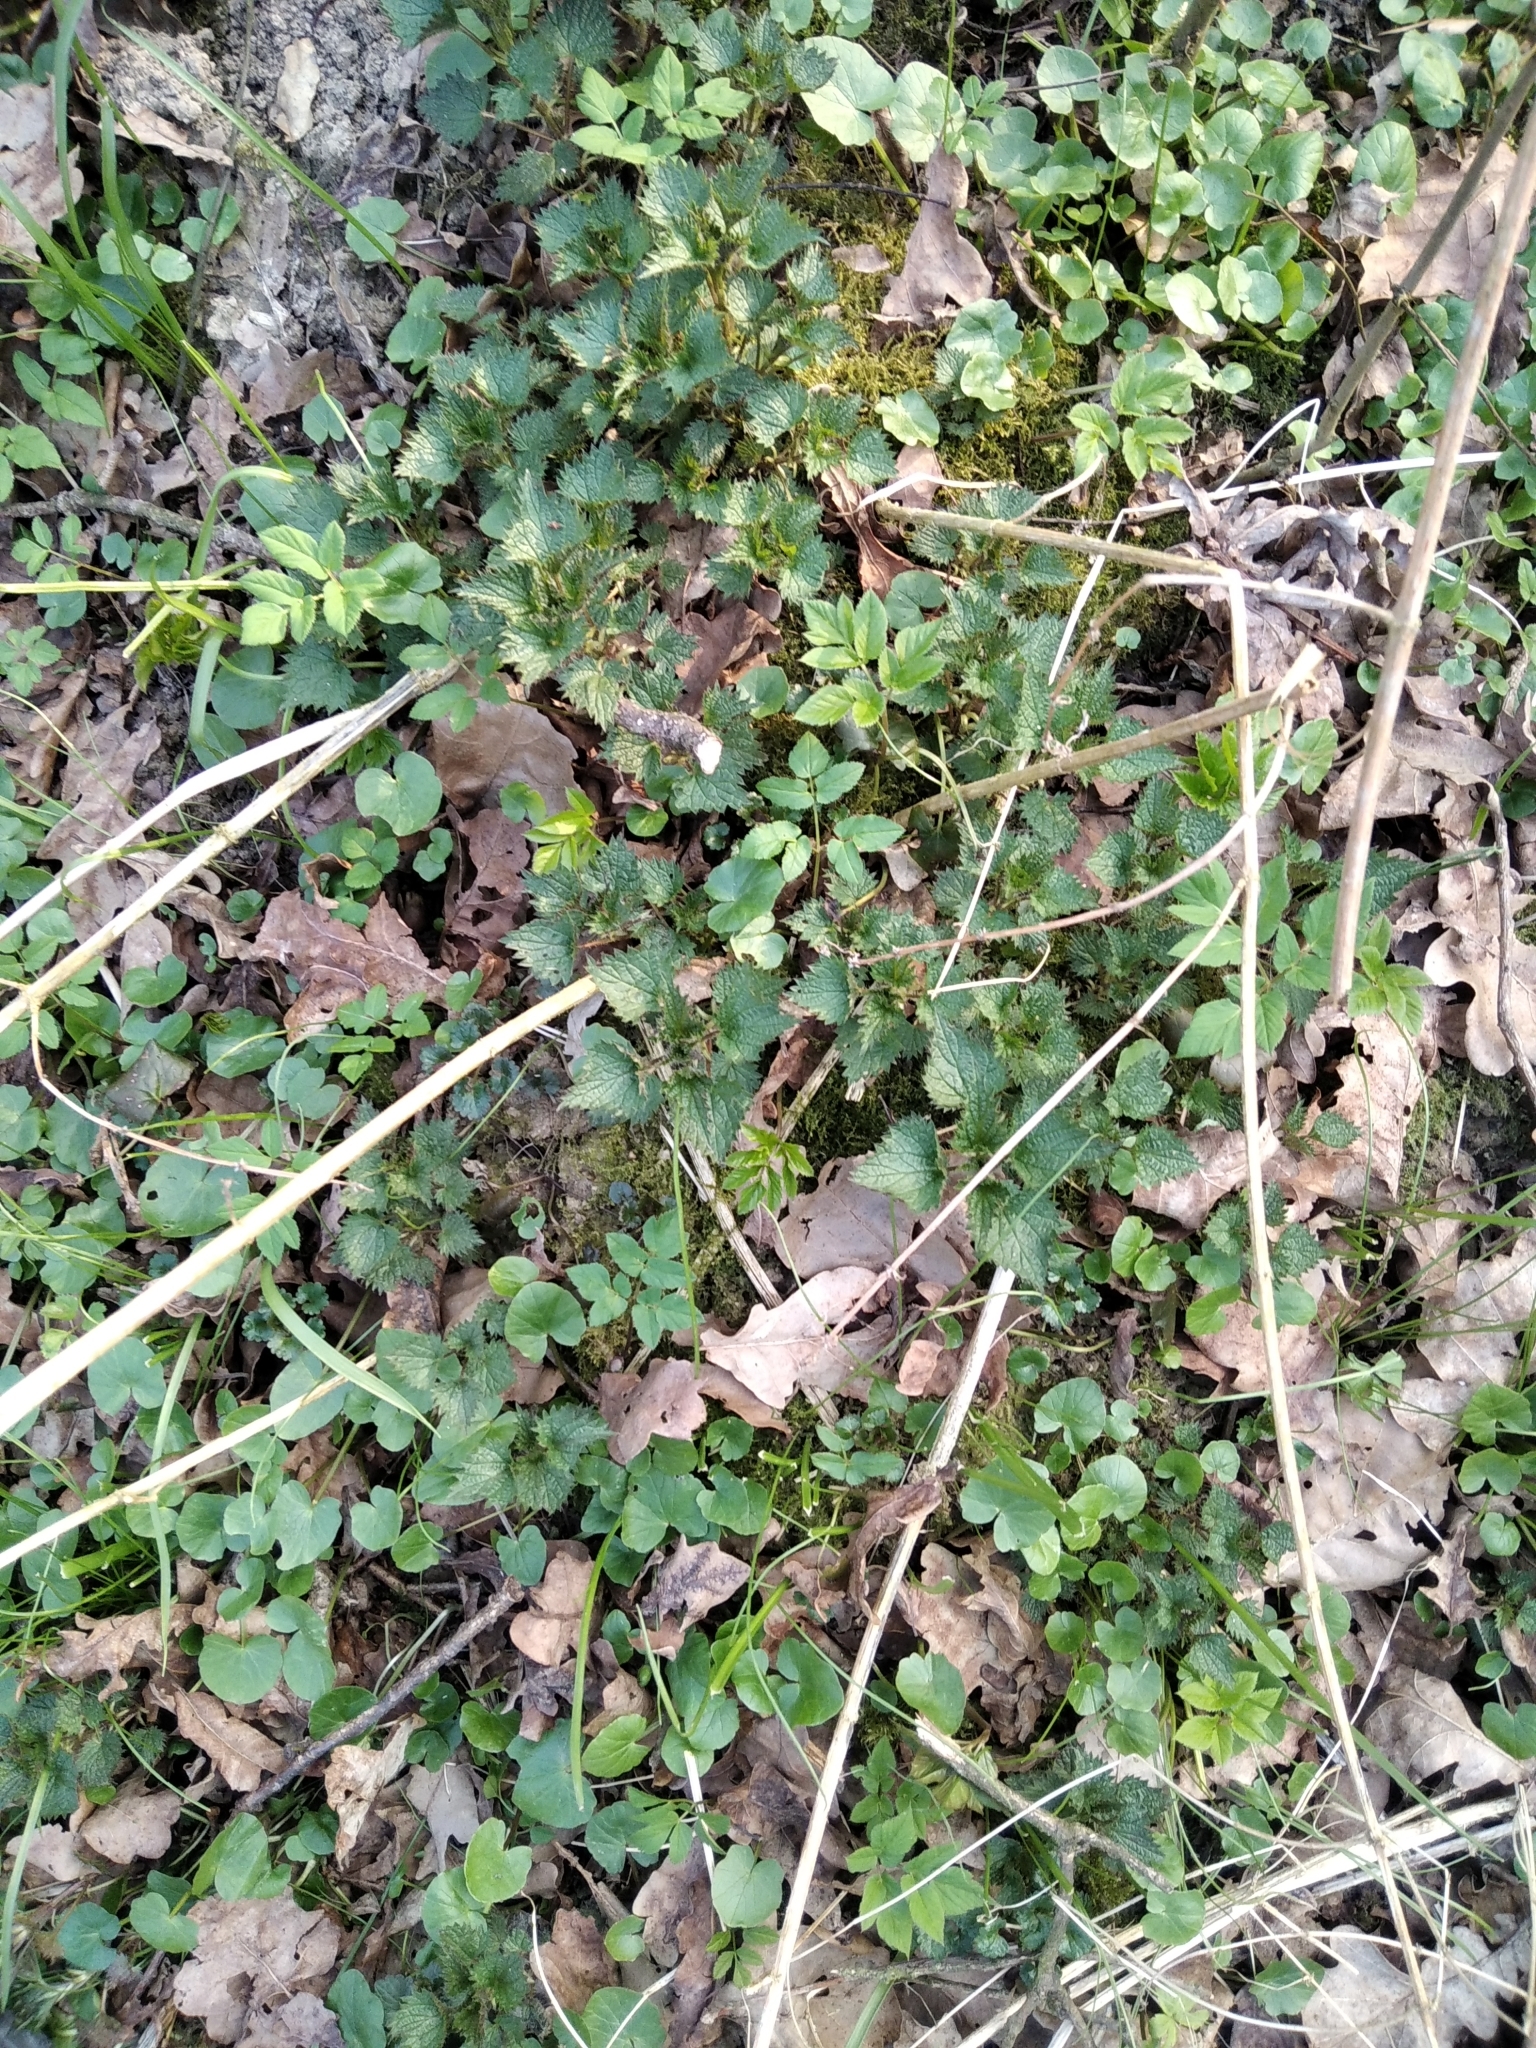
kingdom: Plantae
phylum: Tracheophyta
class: Magnoliopsida
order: Rosales
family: Urticaceae
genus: Urtica
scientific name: Urtica dioica
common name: Common nettle
